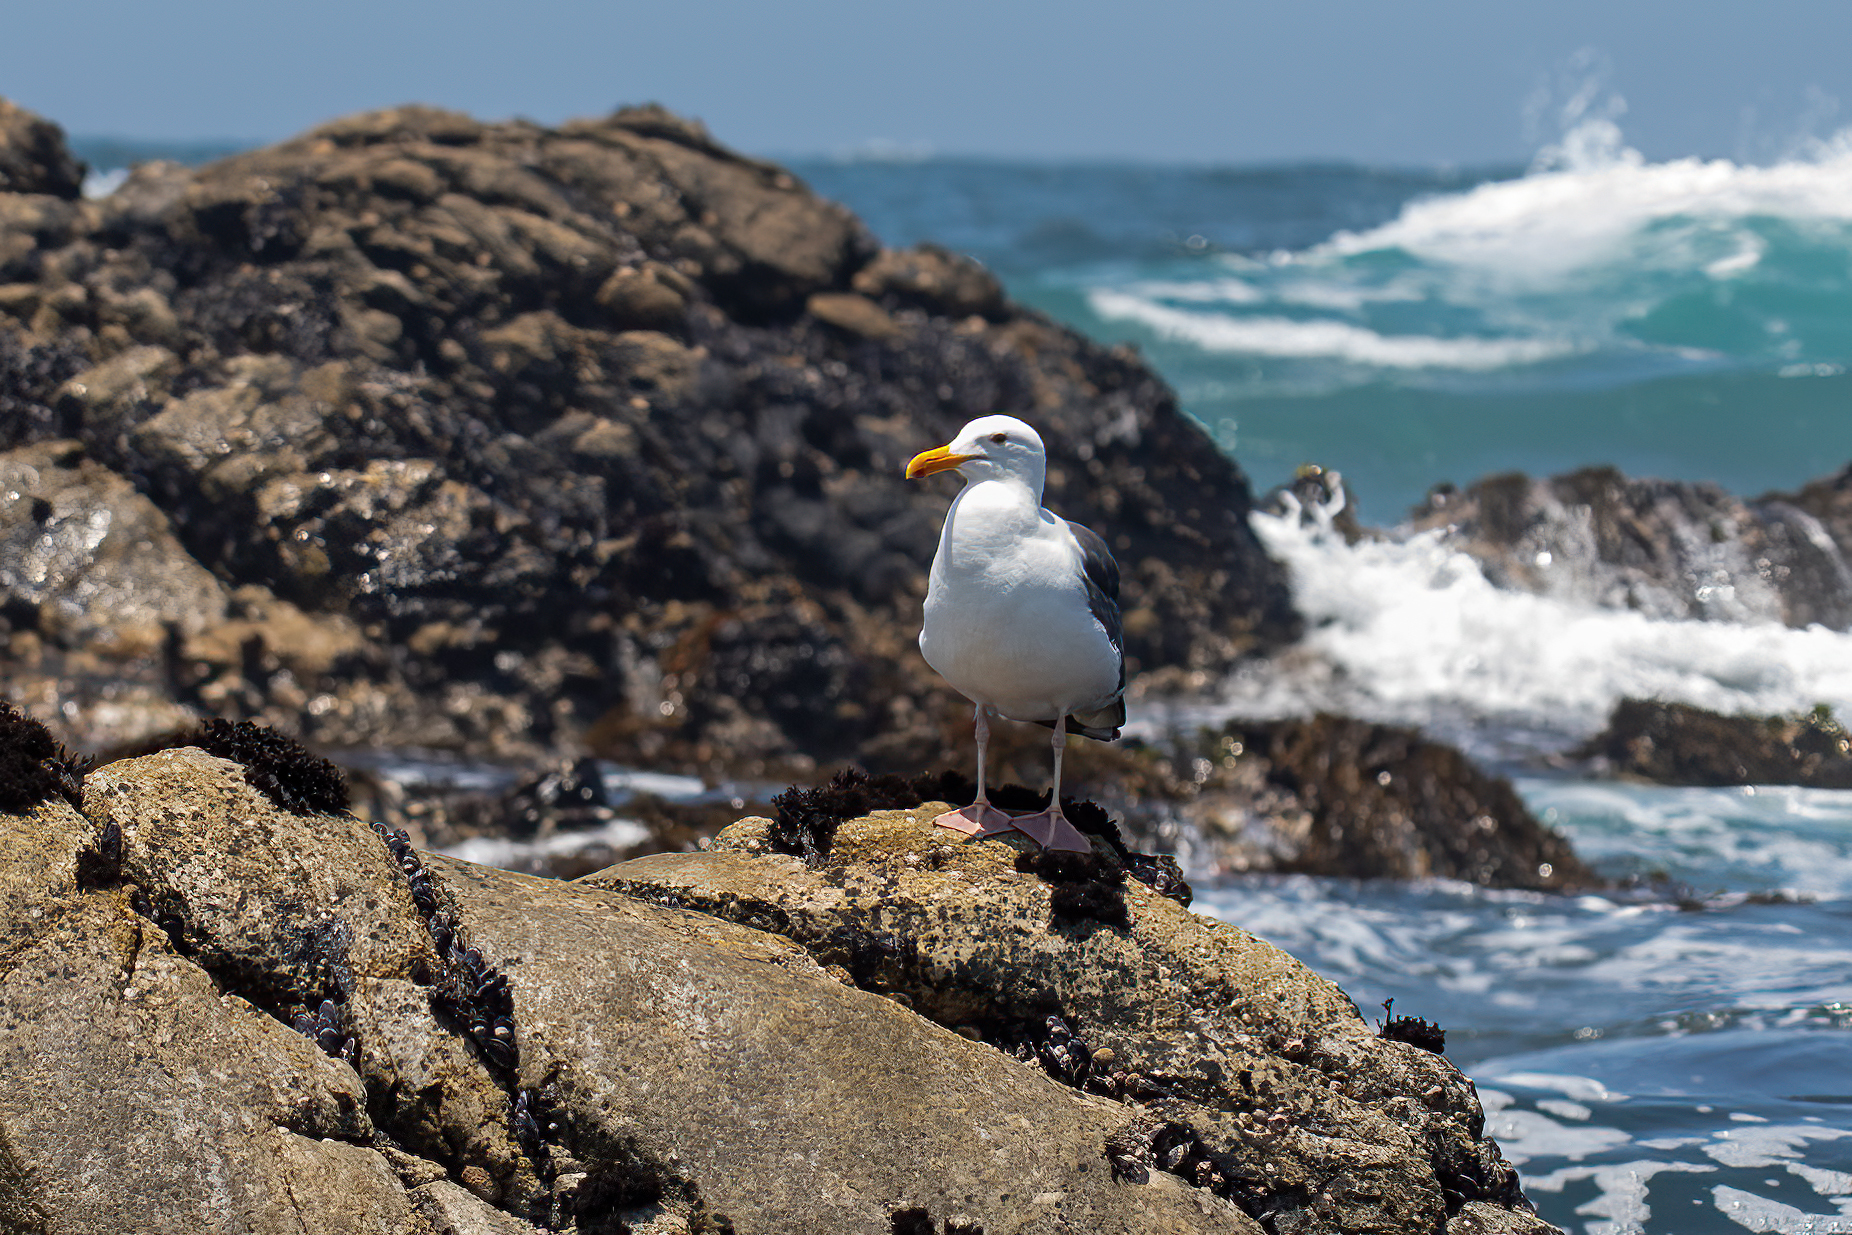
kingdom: Animalia
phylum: Chordata
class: Aves
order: Charadriiformes
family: Laridae
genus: Larus
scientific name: Larus occidentalis
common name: Western gull
